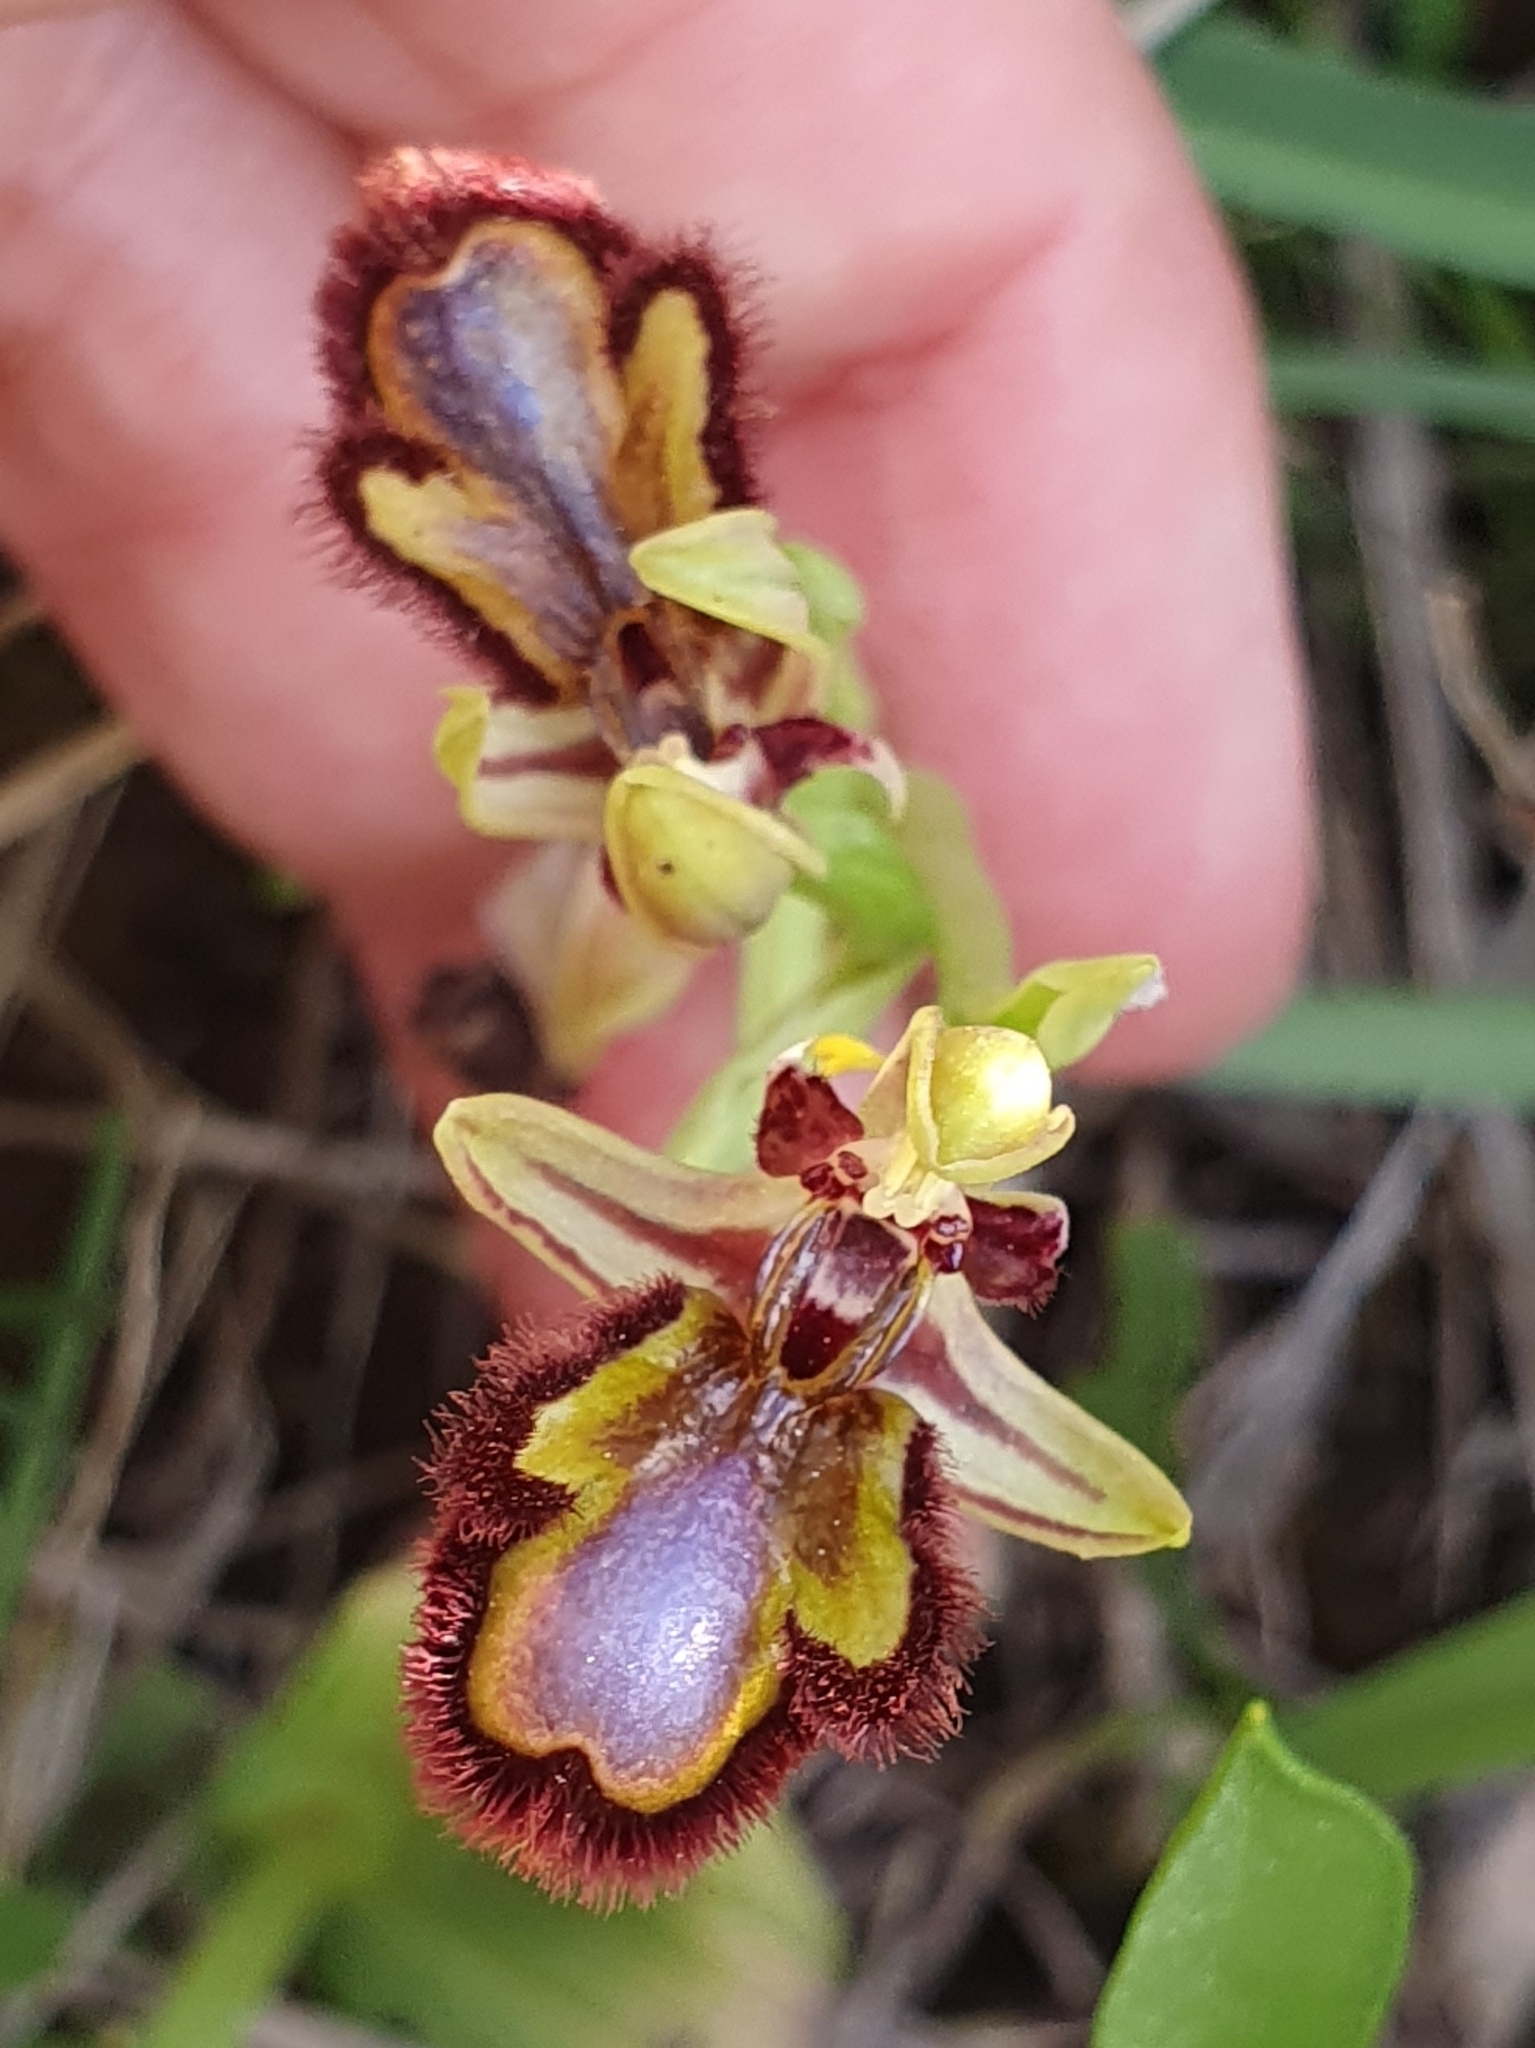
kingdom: Plantae
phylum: Tracheophyta
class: Liliopsida
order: Asparagales
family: Orchidaceae
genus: Ophrys
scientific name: Ophrys speculum
